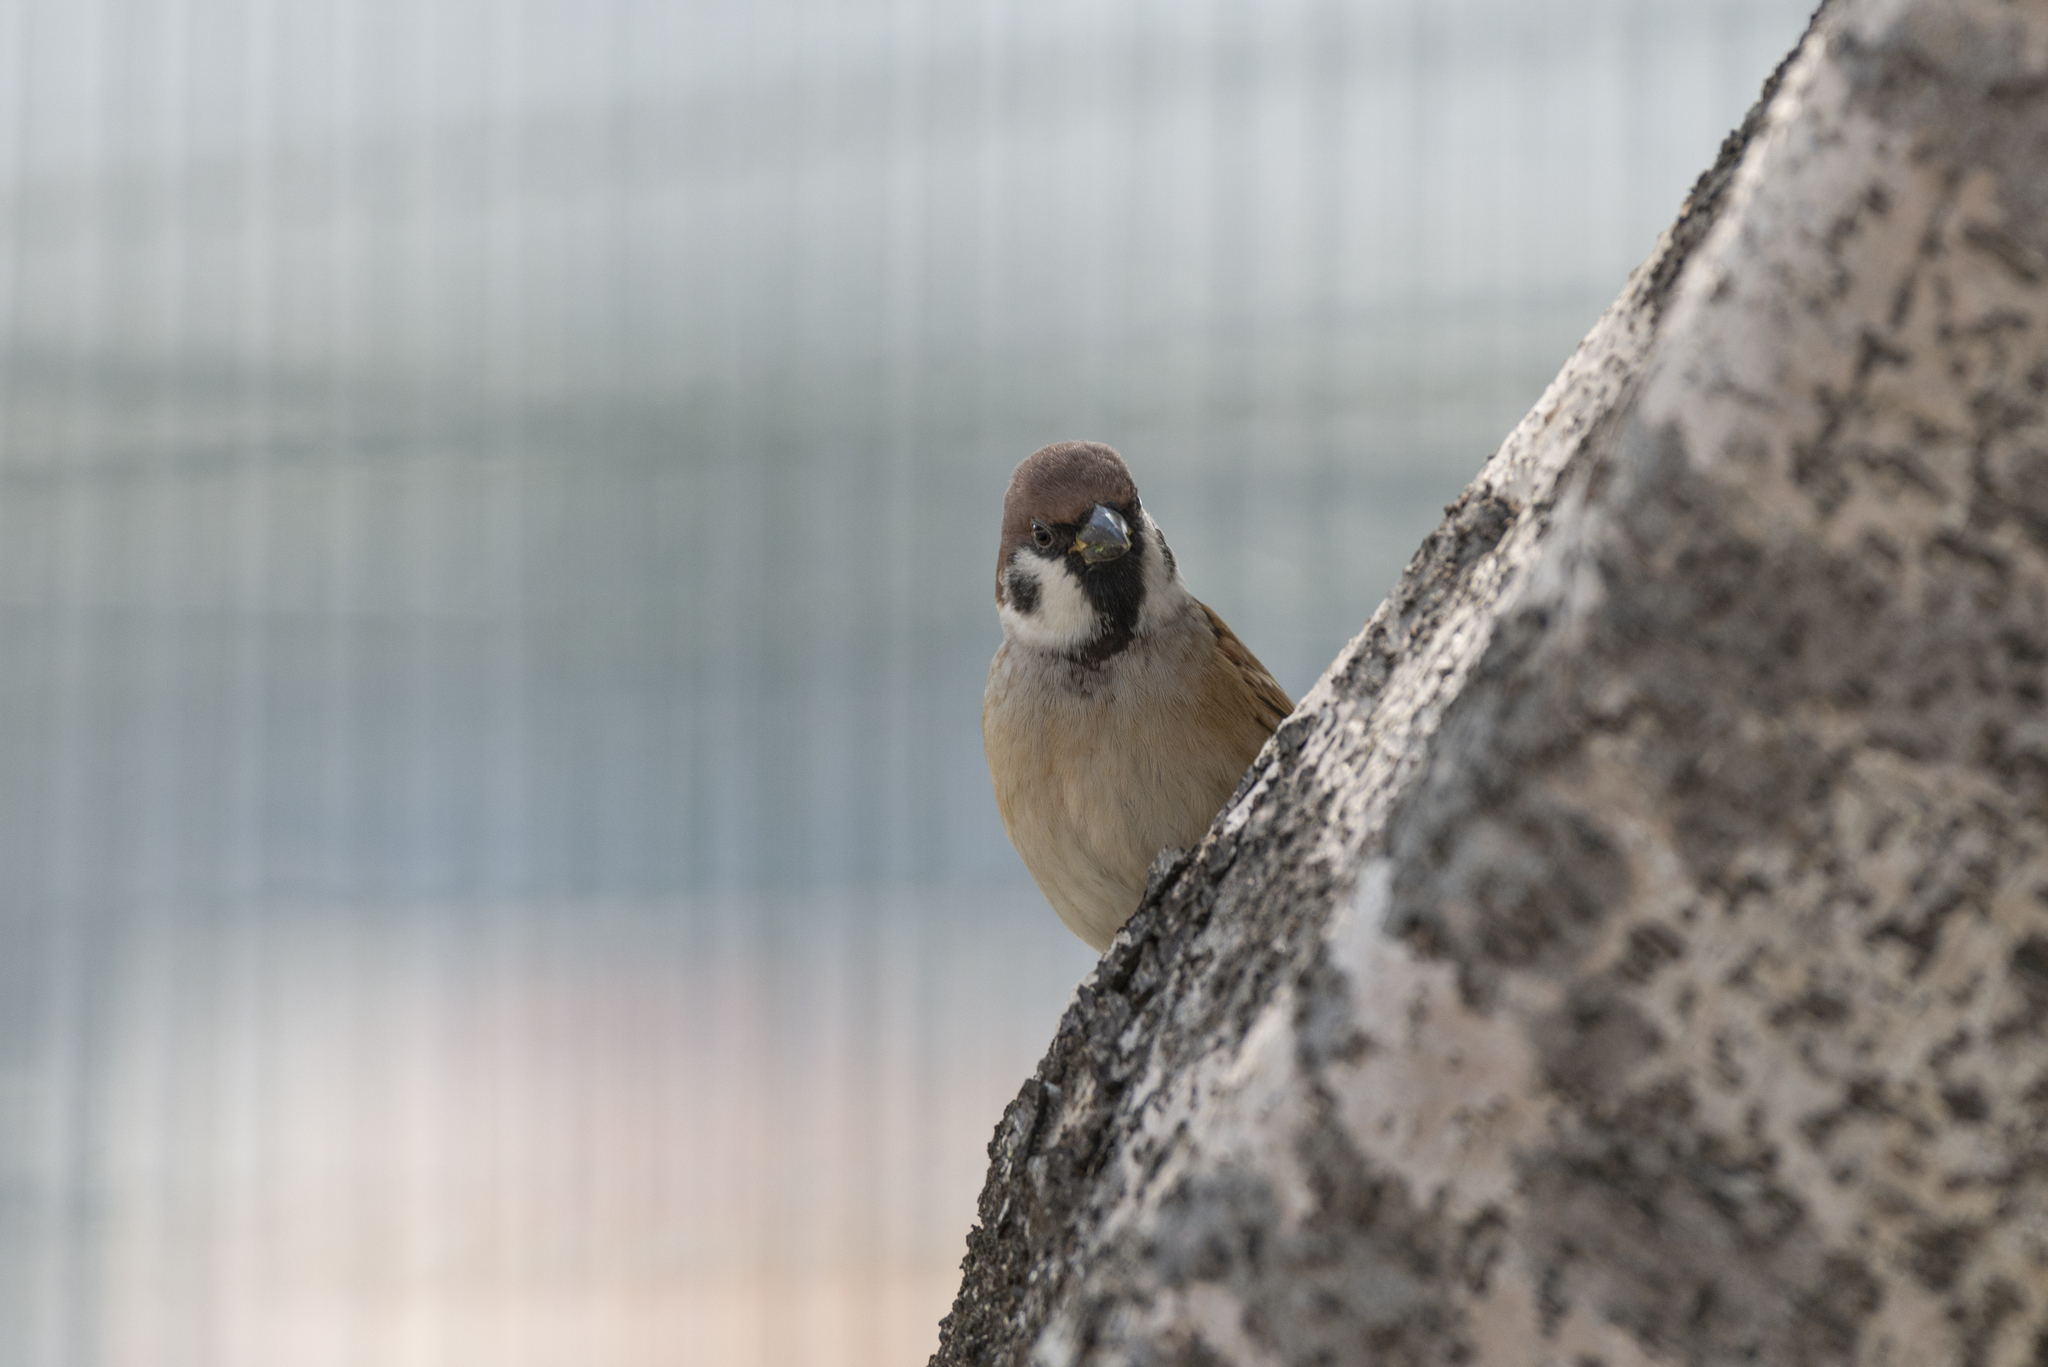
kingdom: Animalia
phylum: Chordata
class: Aves
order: Passeriformes
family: Passeridae
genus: Passer
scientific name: Passer montanus
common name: Eurasian tree sparrow
